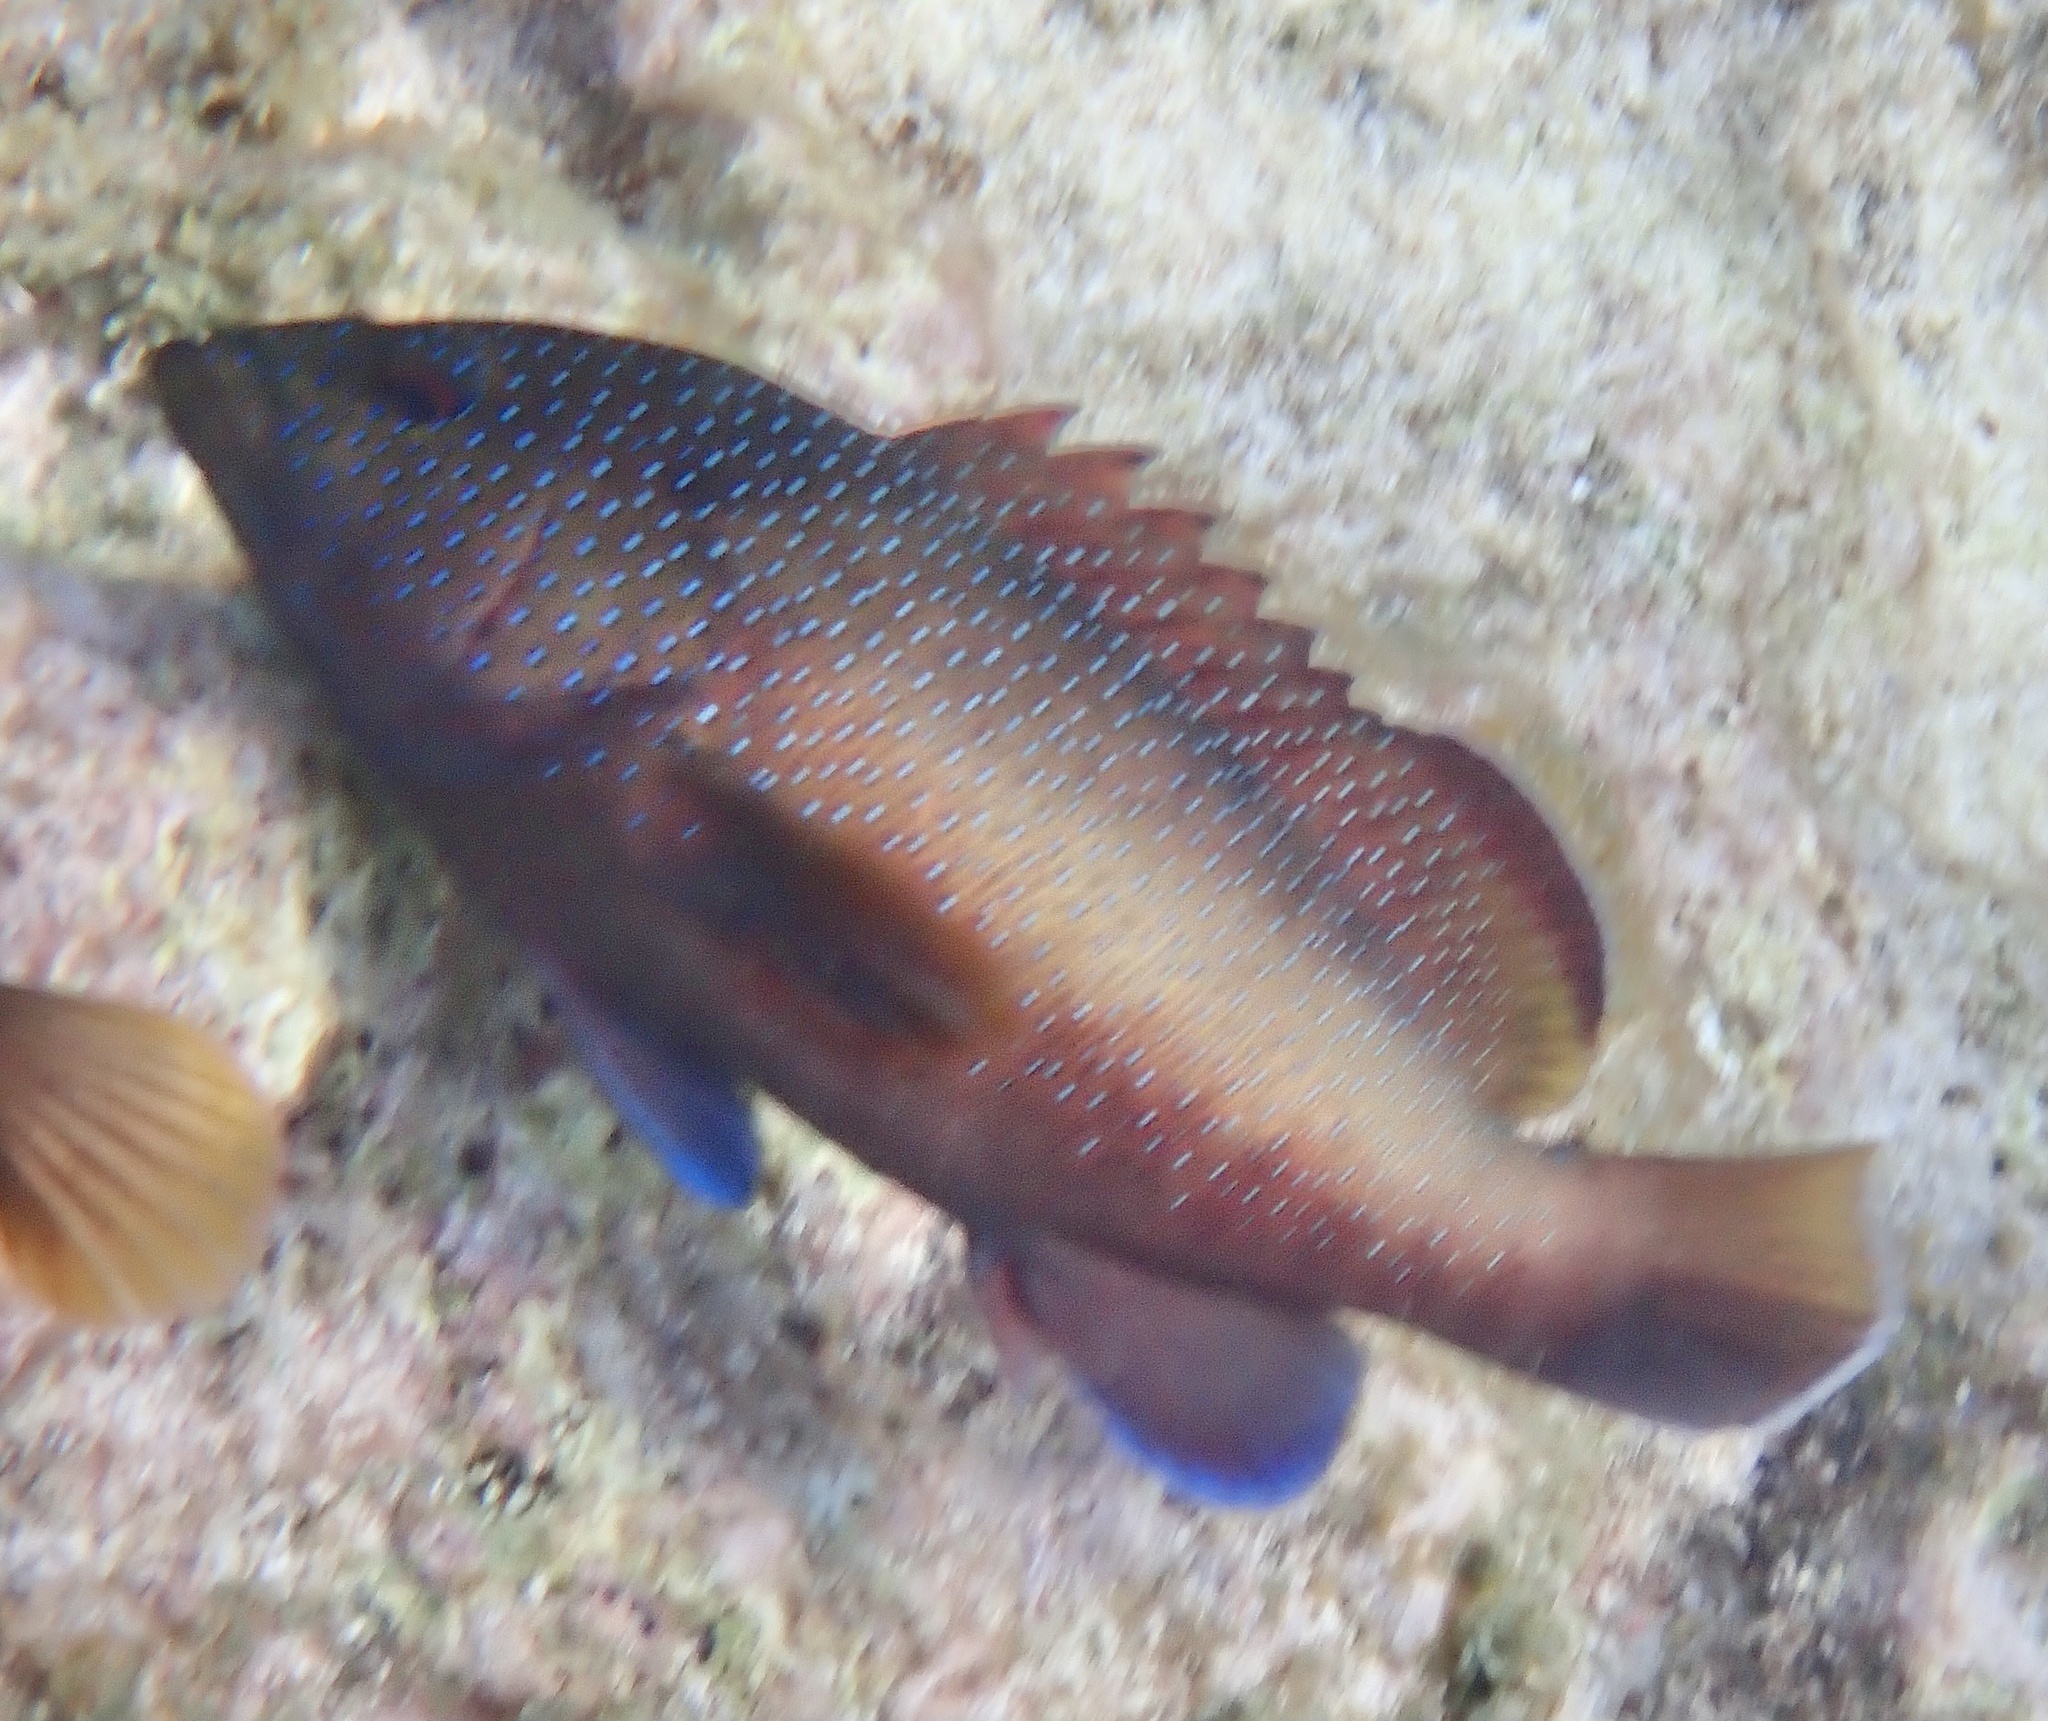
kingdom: Animalia
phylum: Chordata
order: Perciformes
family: Serranidae
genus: Cephalopholis
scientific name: Cephalopholis fulva
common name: Butterfish
